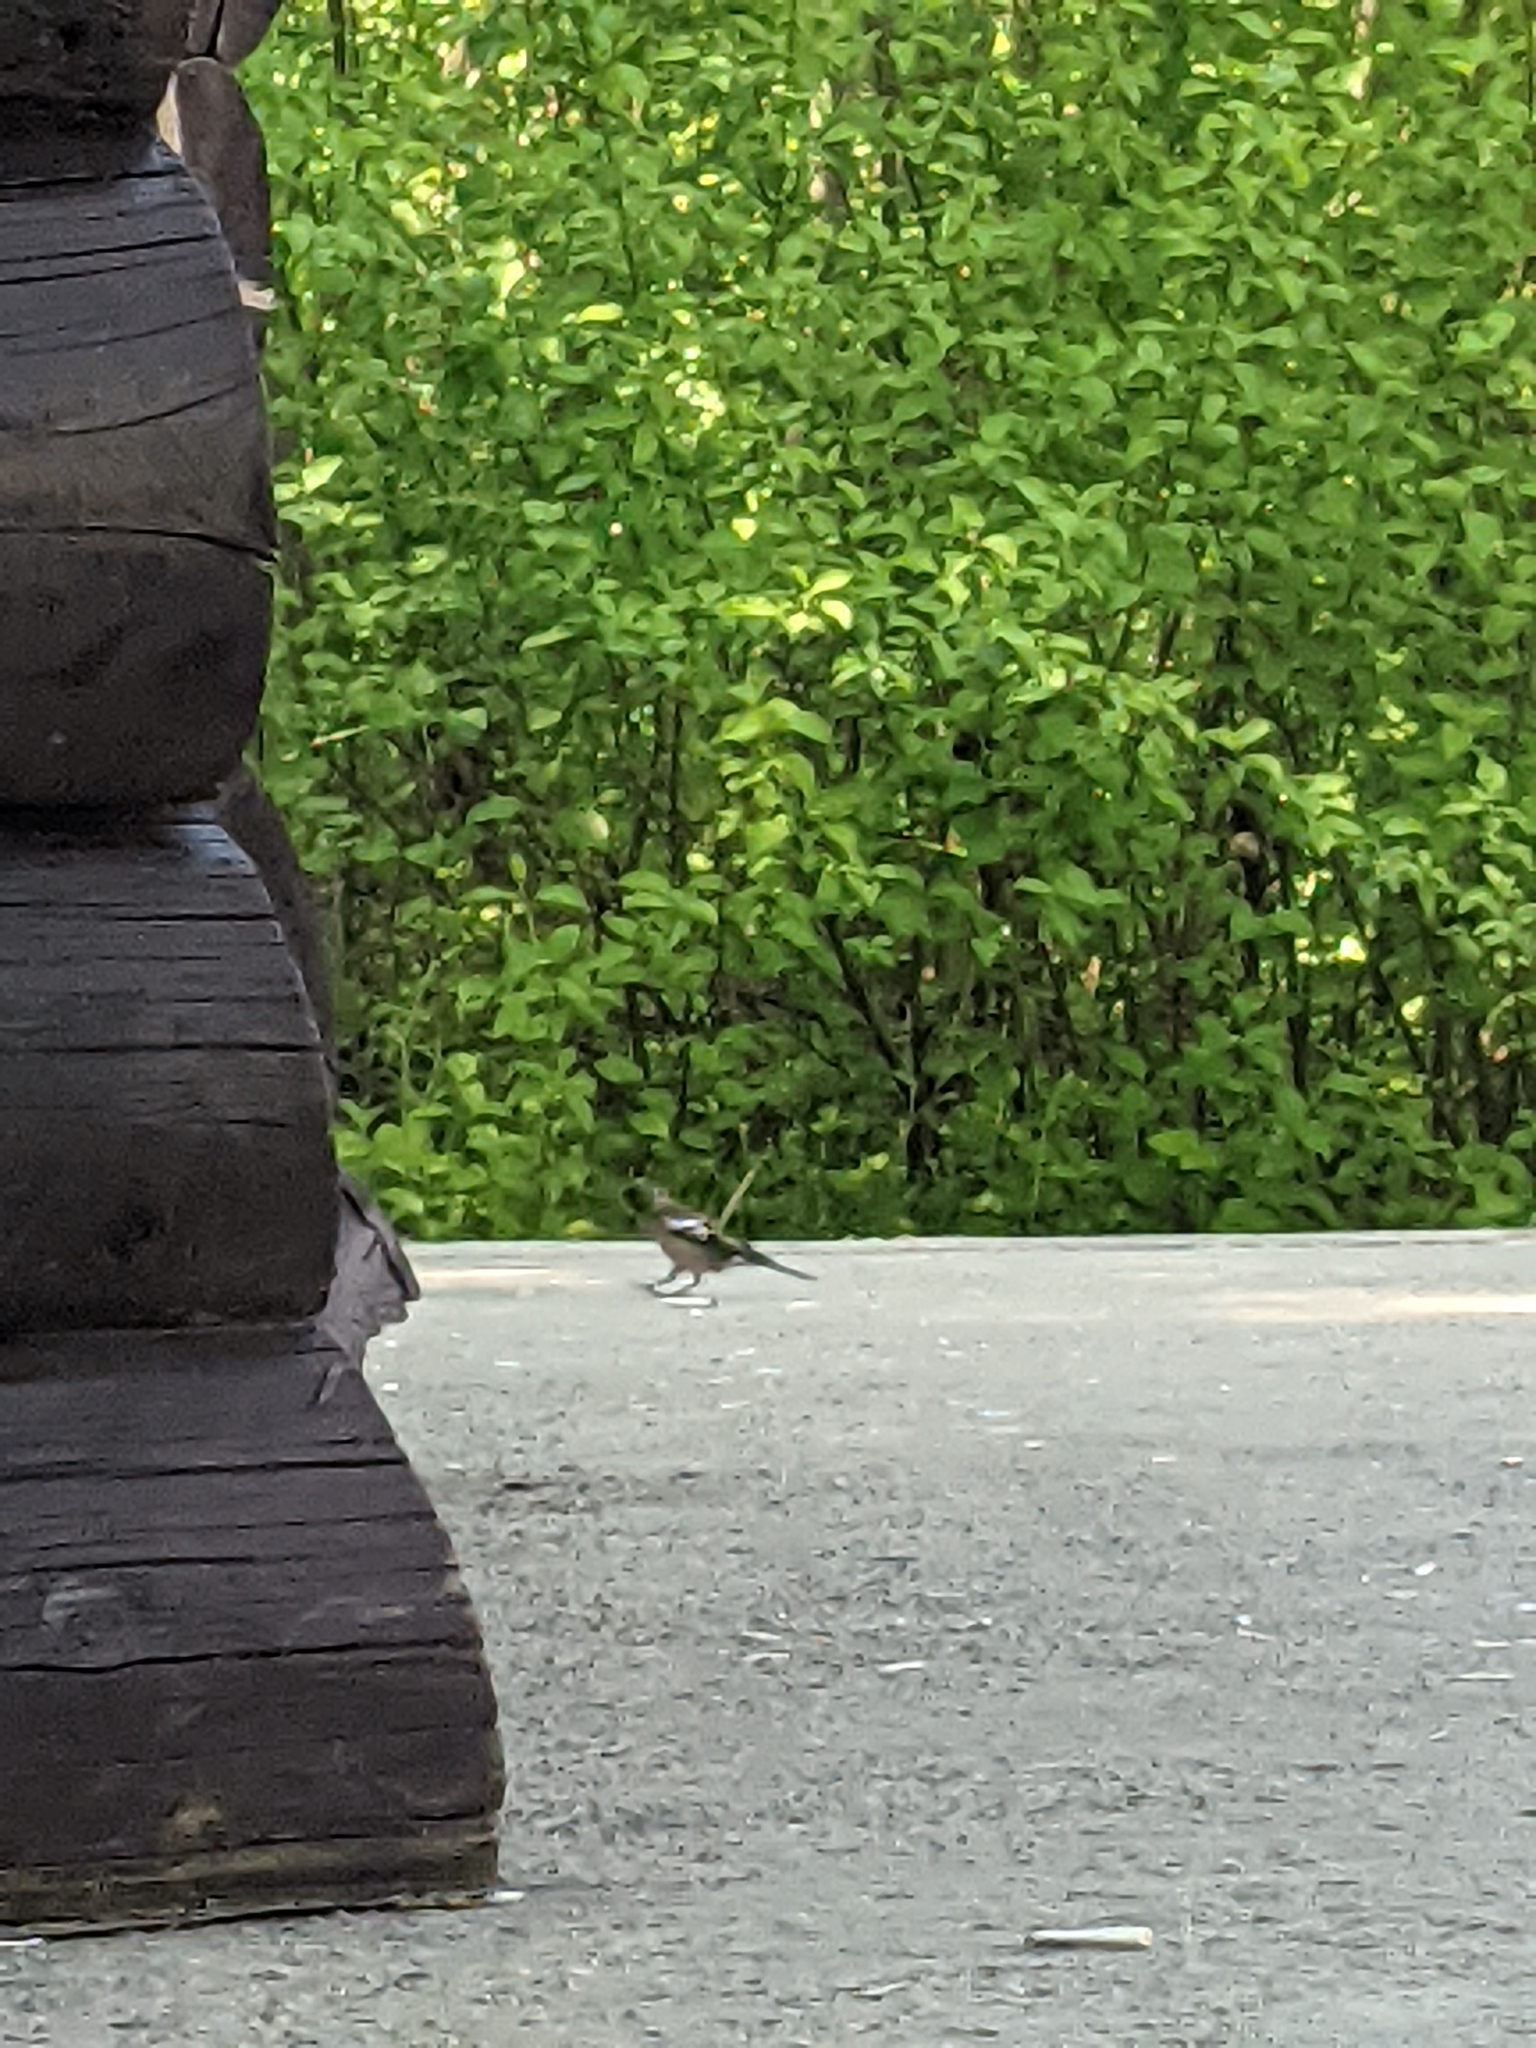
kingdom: Animalia
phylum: Chordata
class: Aves
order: Passeriformes
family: Fringillidae
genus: Fringilla
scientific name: Fringilla coelebs
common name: Common chaffinch
